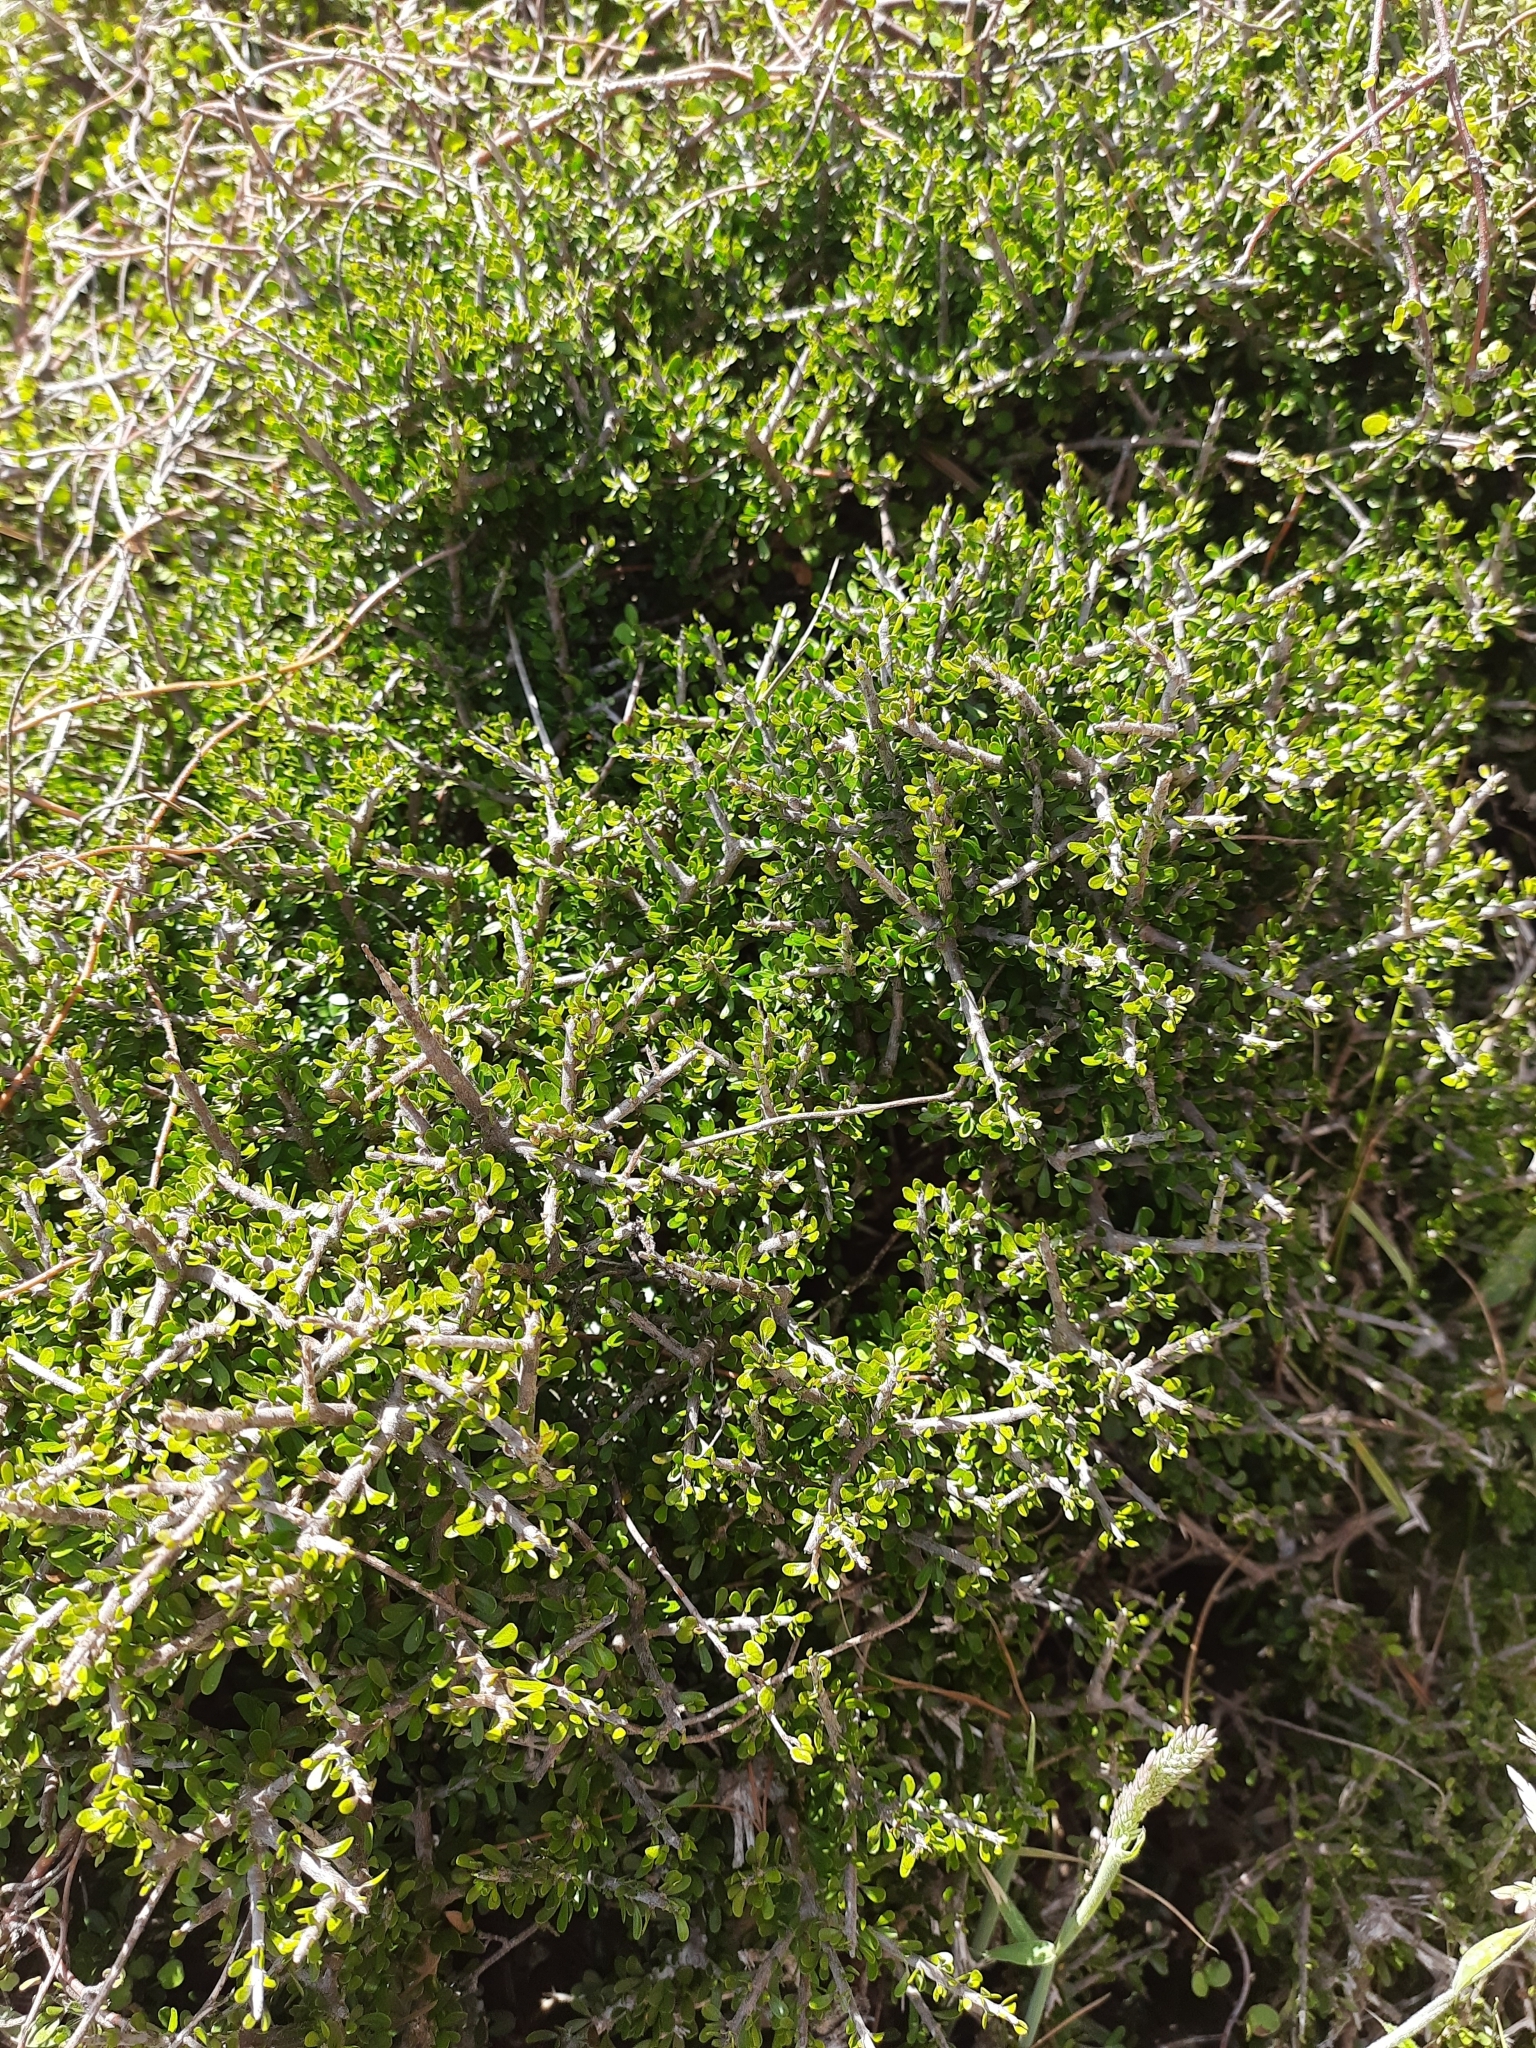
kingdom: Plantae
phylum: Tracheophyta
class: Magnoliopsida
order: Malpighiales
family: Violaceae
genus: Melicytus
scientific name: Melicytus alpinus
